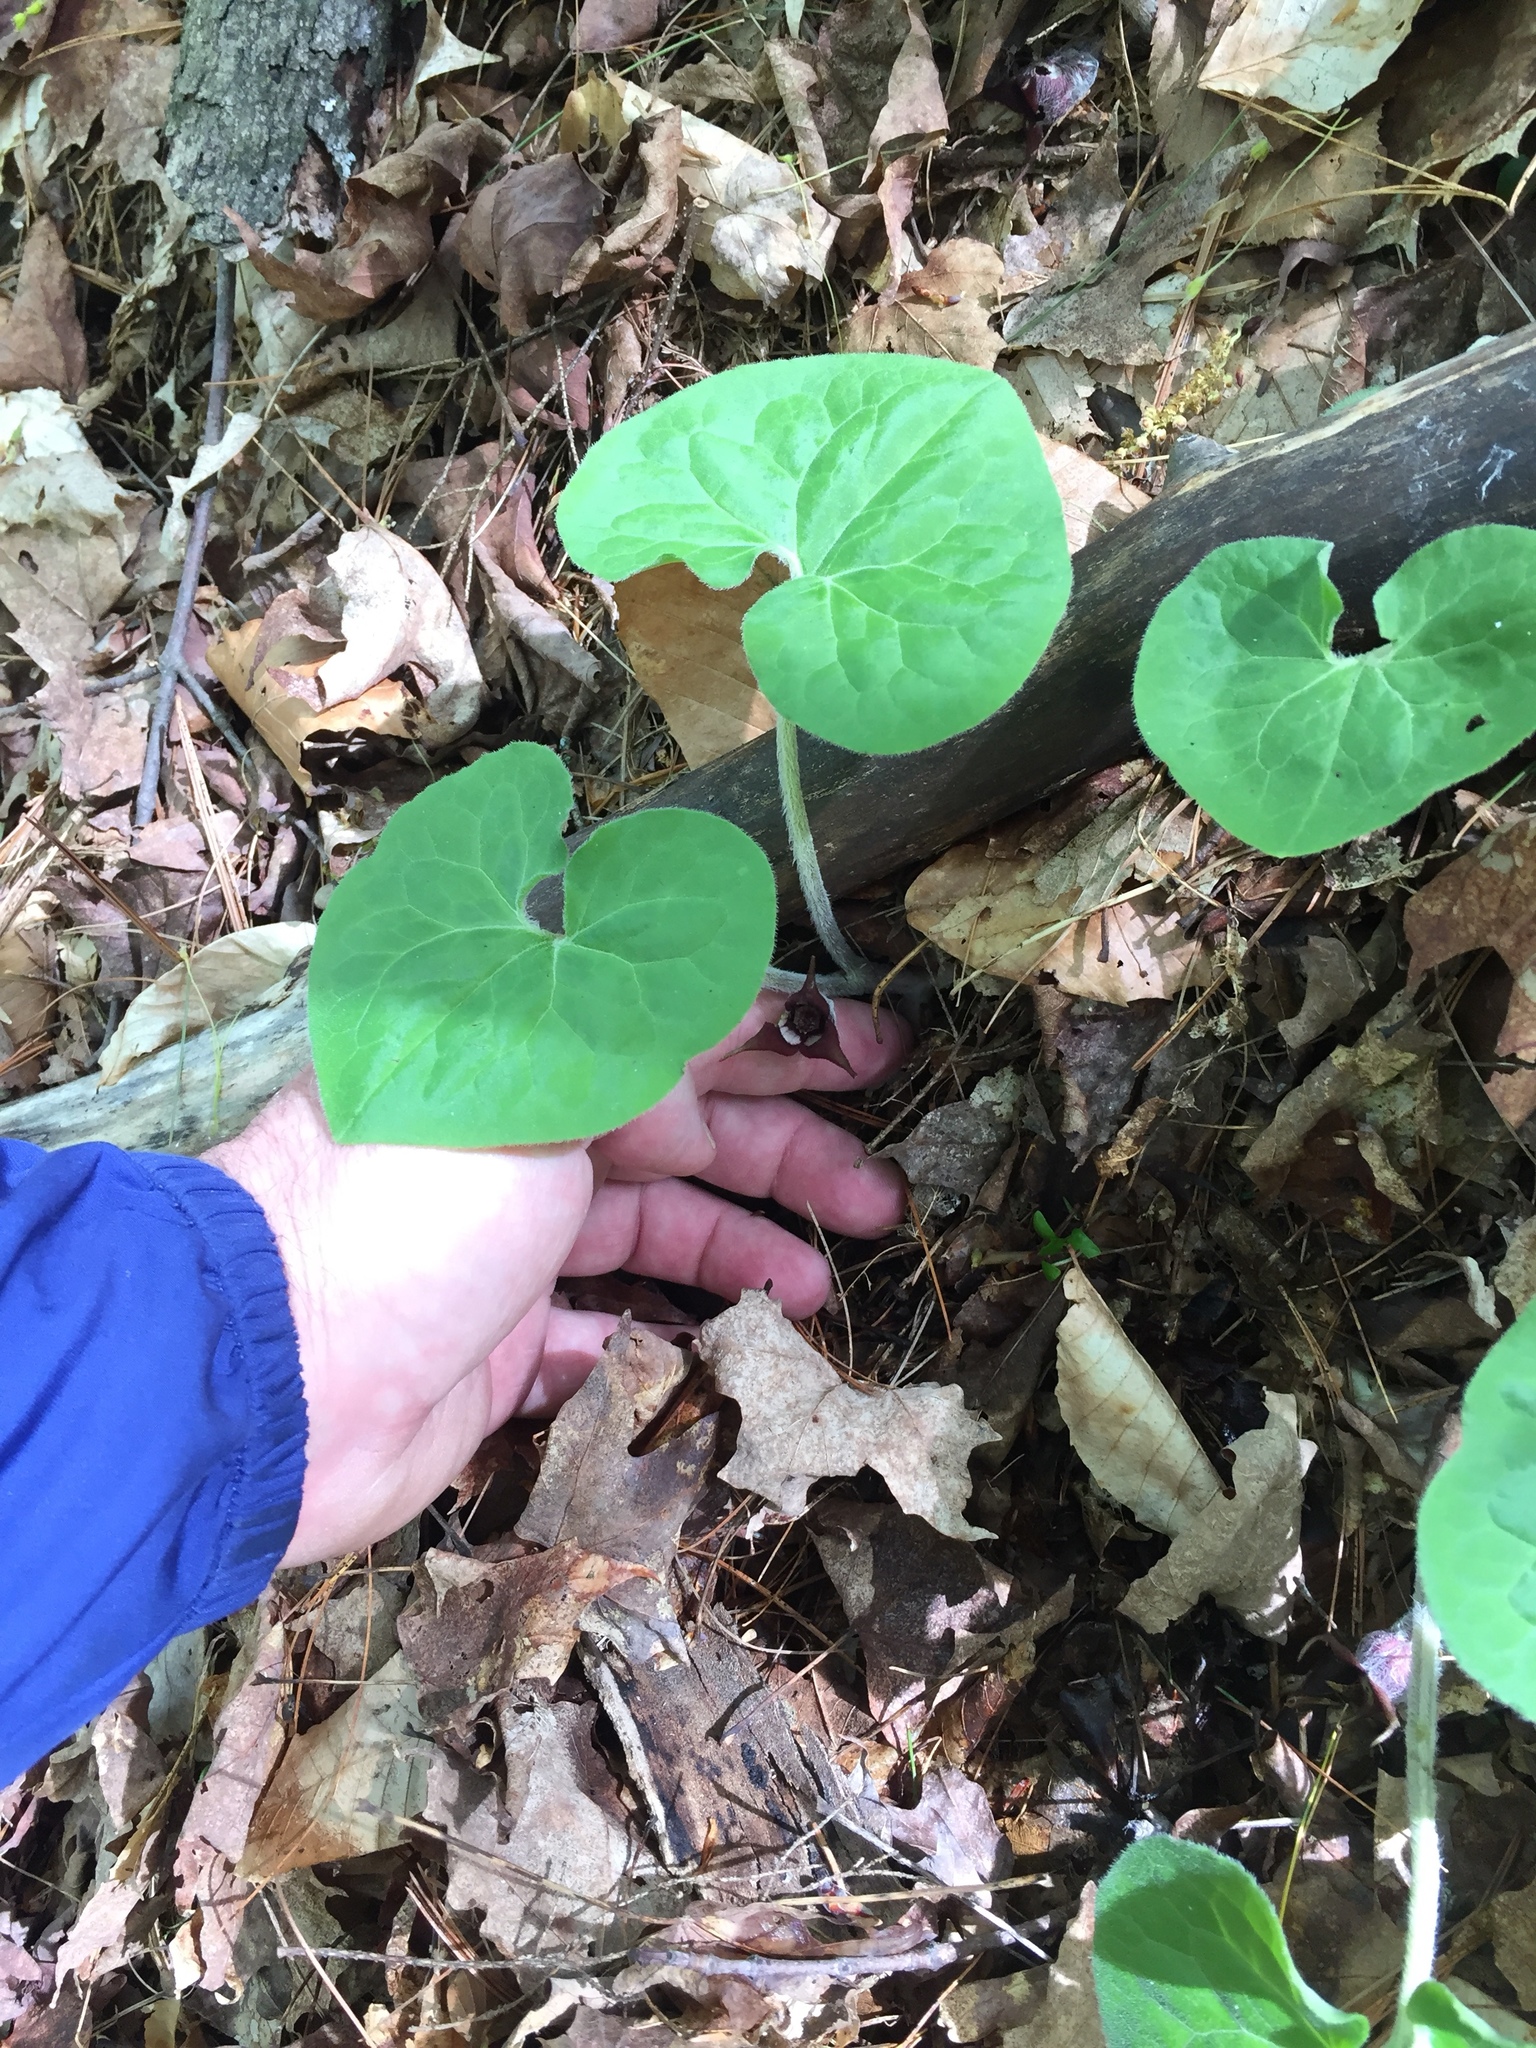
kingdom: Plantae
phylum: Tracheophyta
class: Magnoliopsida
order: Piperales
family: Aristolochiaceae
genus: Asarum
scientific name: Asarum canadense
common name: Wild ginger
